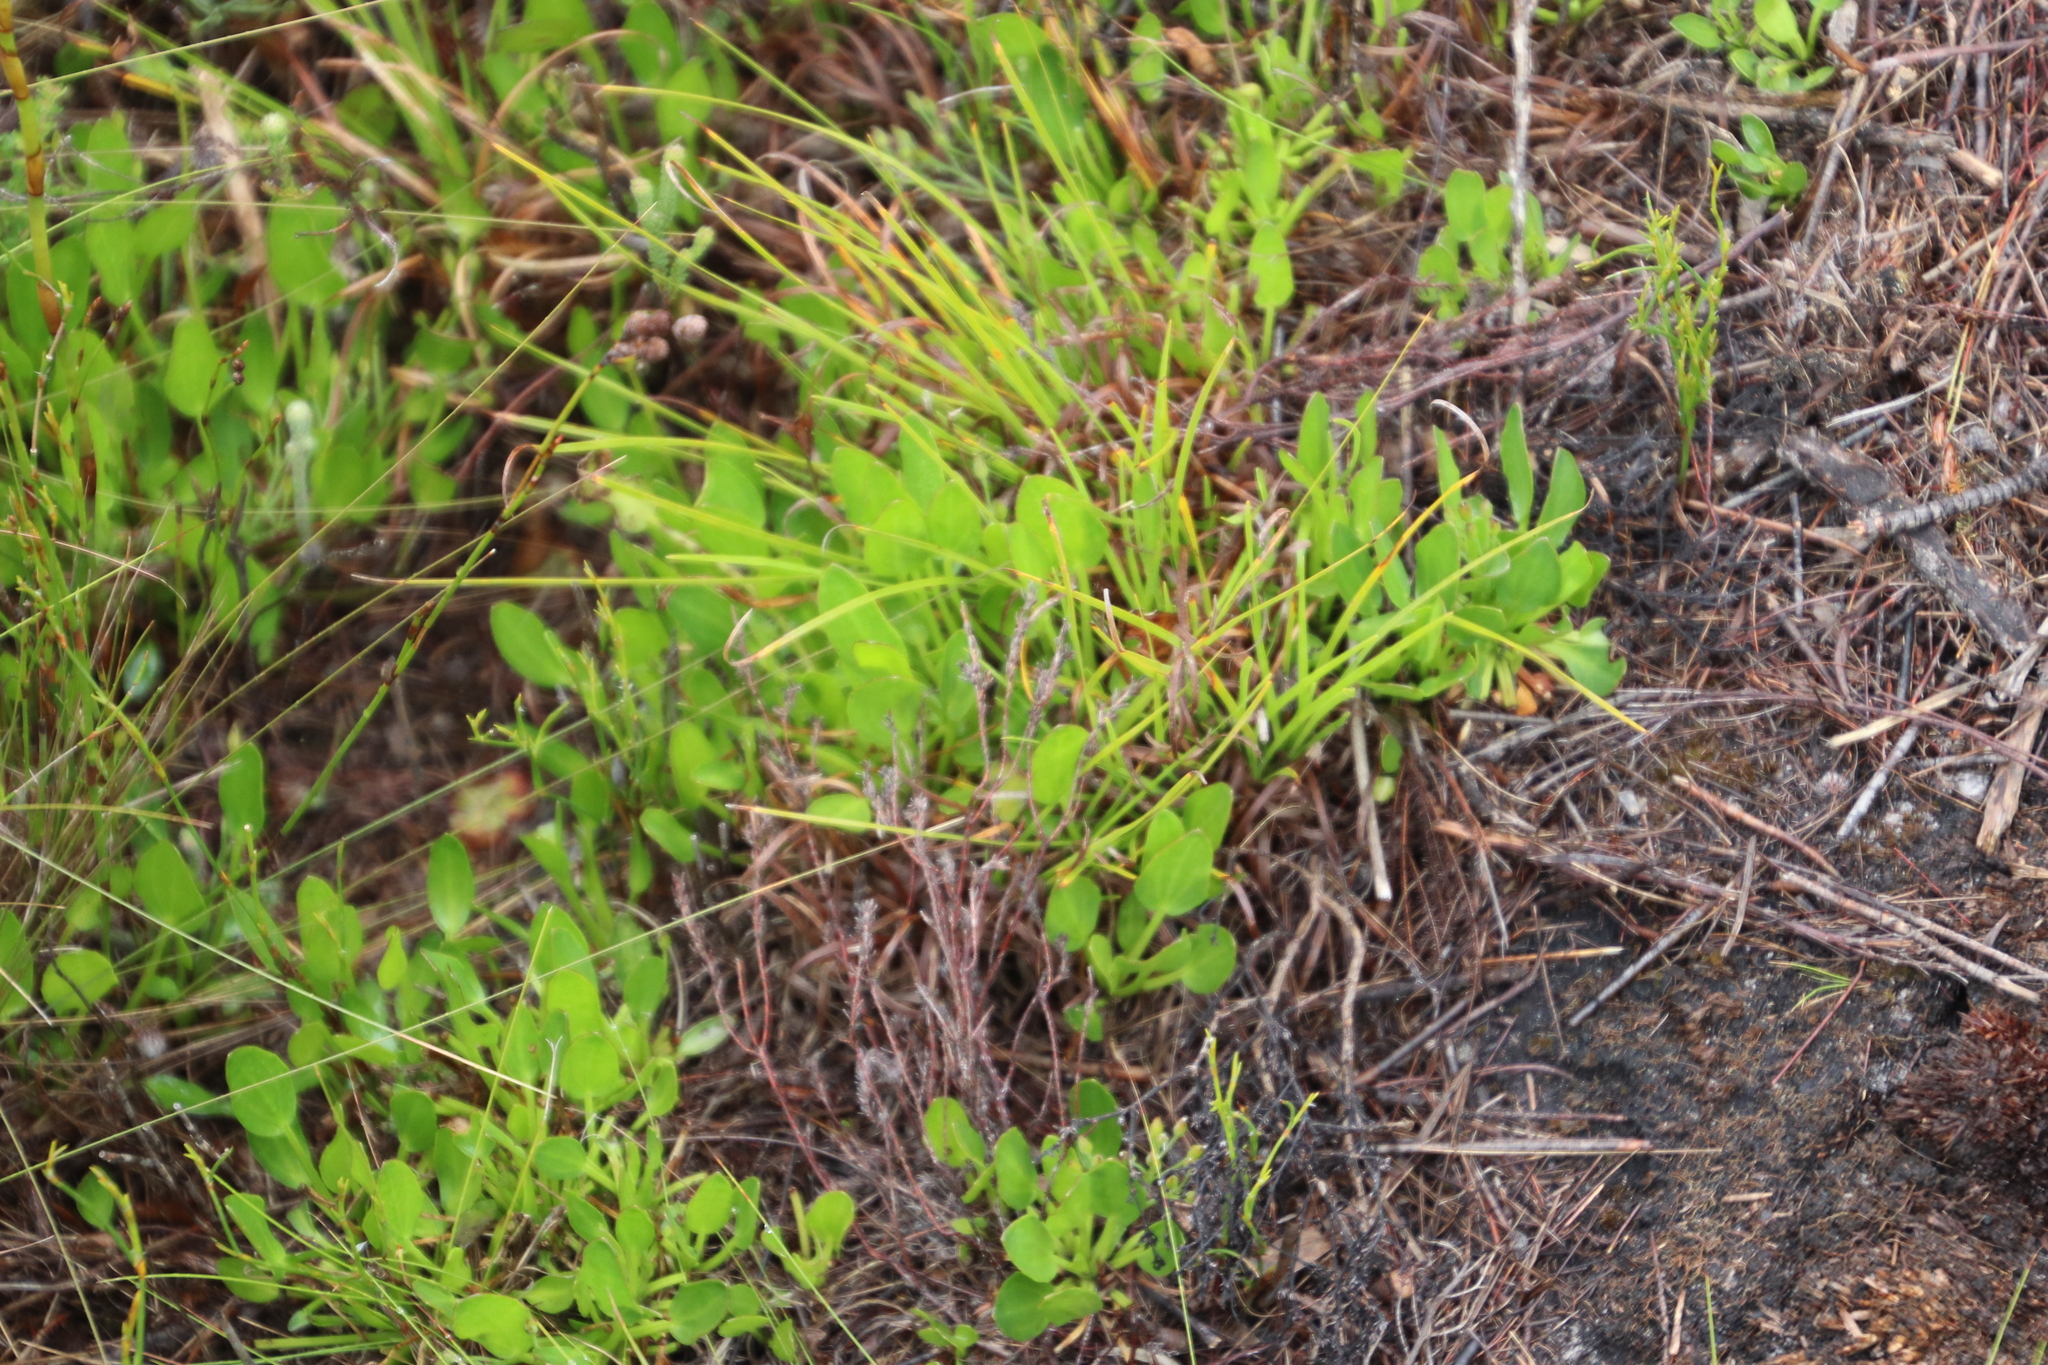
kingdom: Plantae
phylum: Tracheophyta
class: Magnoliopsida
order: Asterales
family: Menyanthaceae
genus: Villarsia
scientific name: Villarsia manningiana
